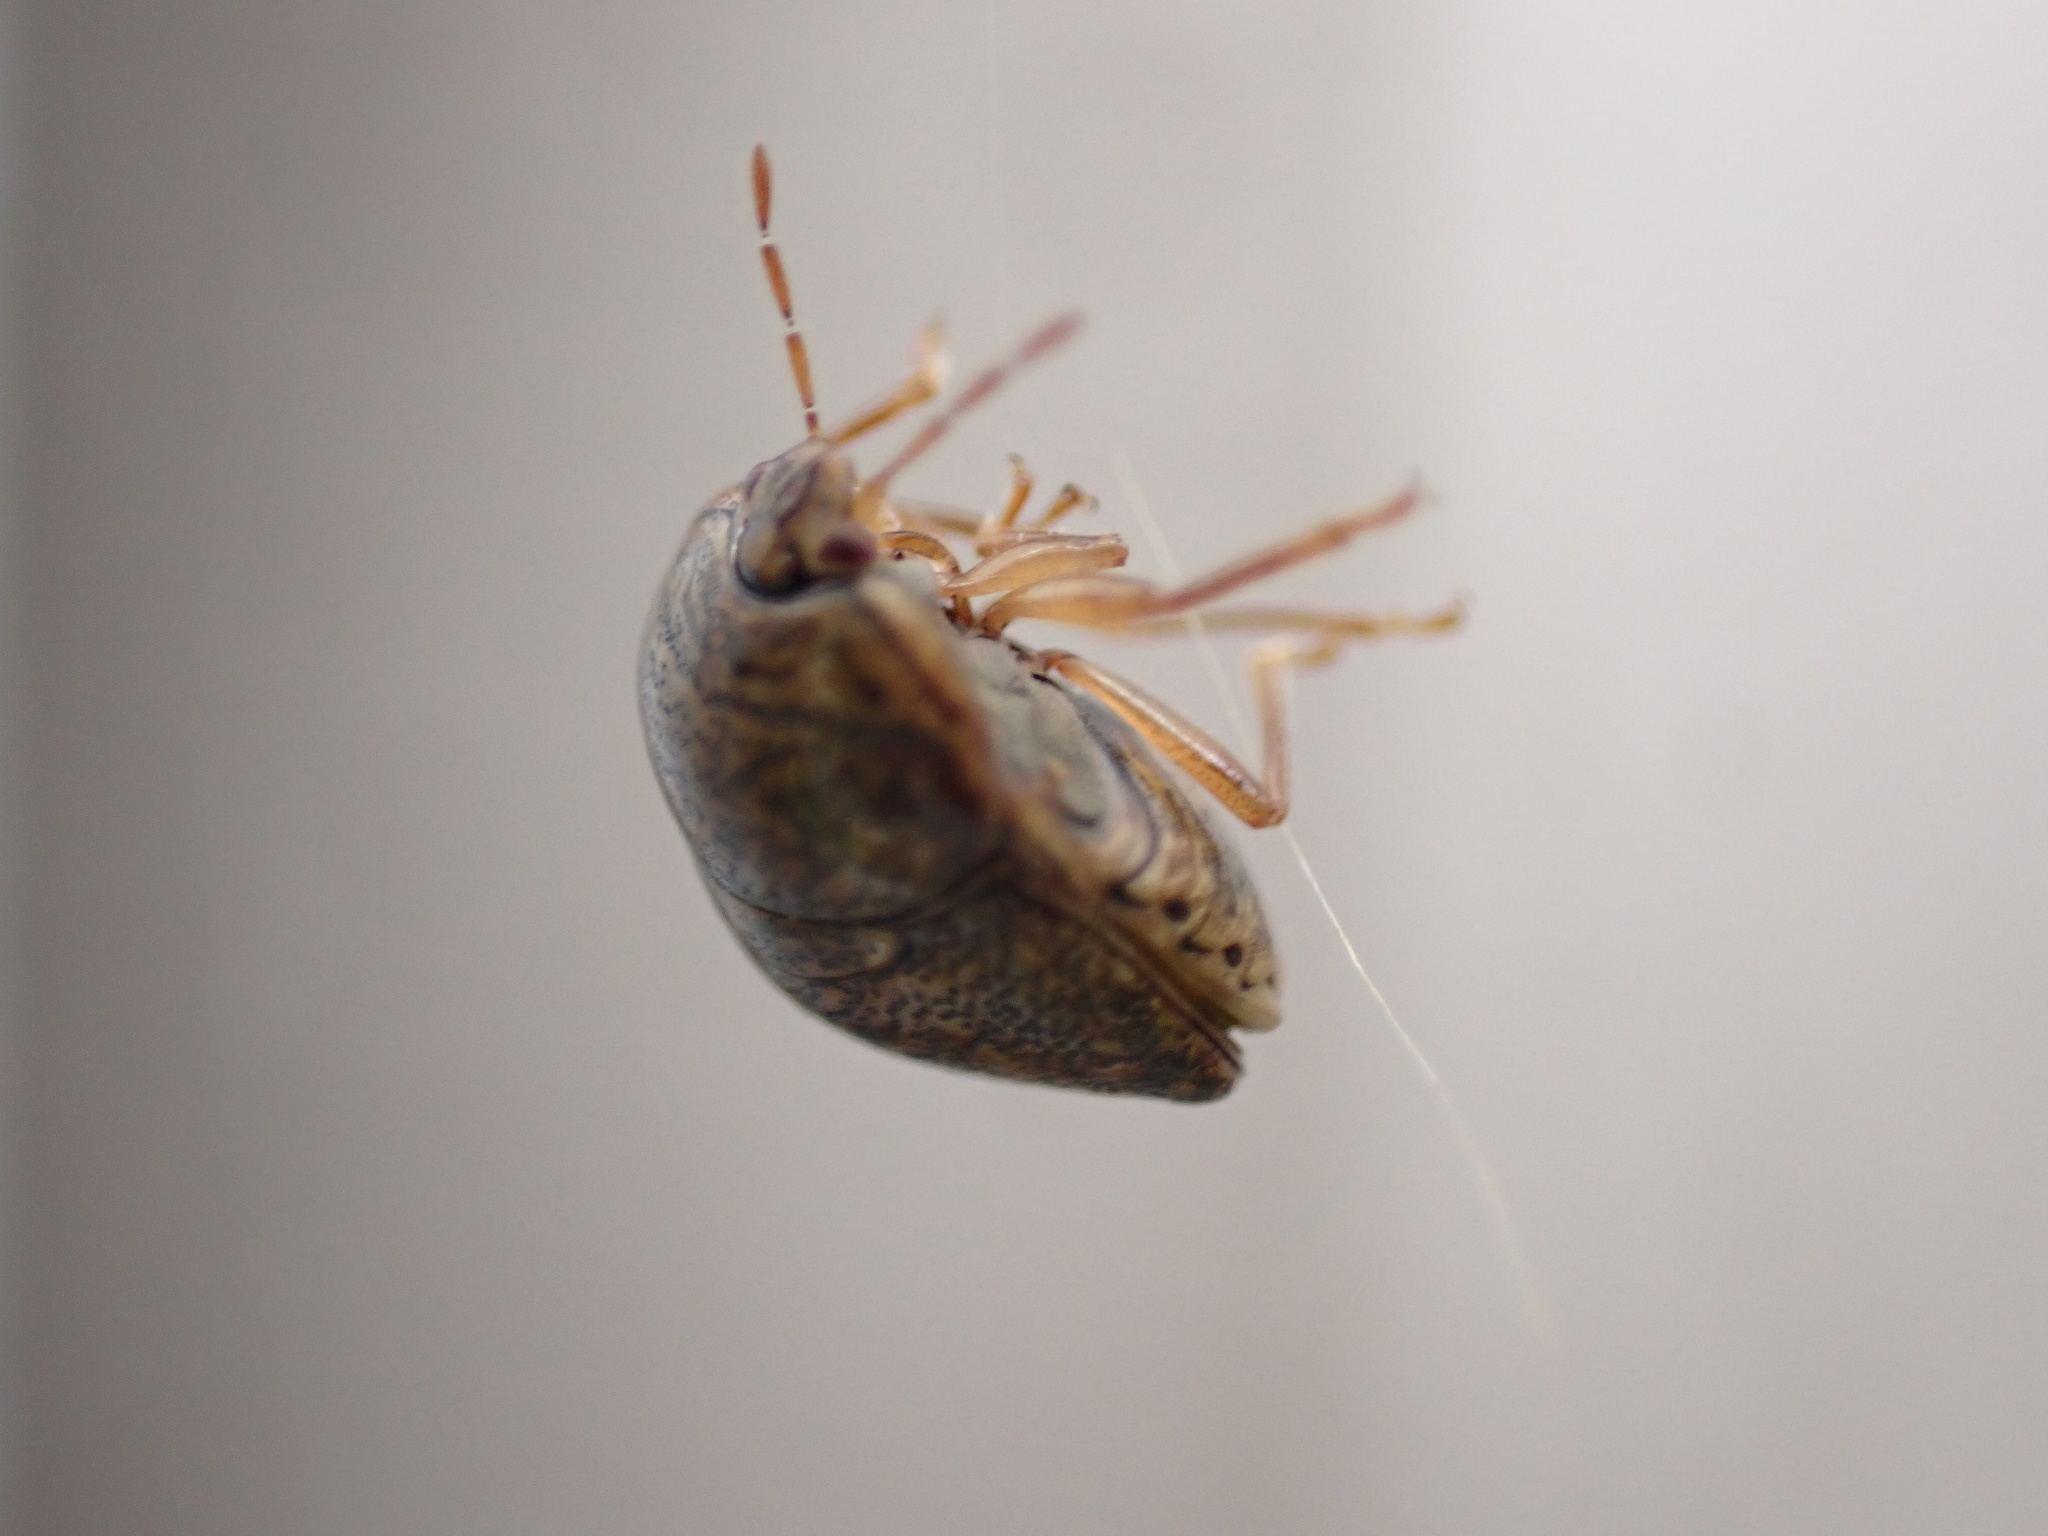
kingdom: Animalia
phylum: Arthropoda
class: Insecta
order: Hemiptera
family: Plataspidae
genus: Megacopta
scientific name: Megacopta cribraria
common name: Bean plataspid
